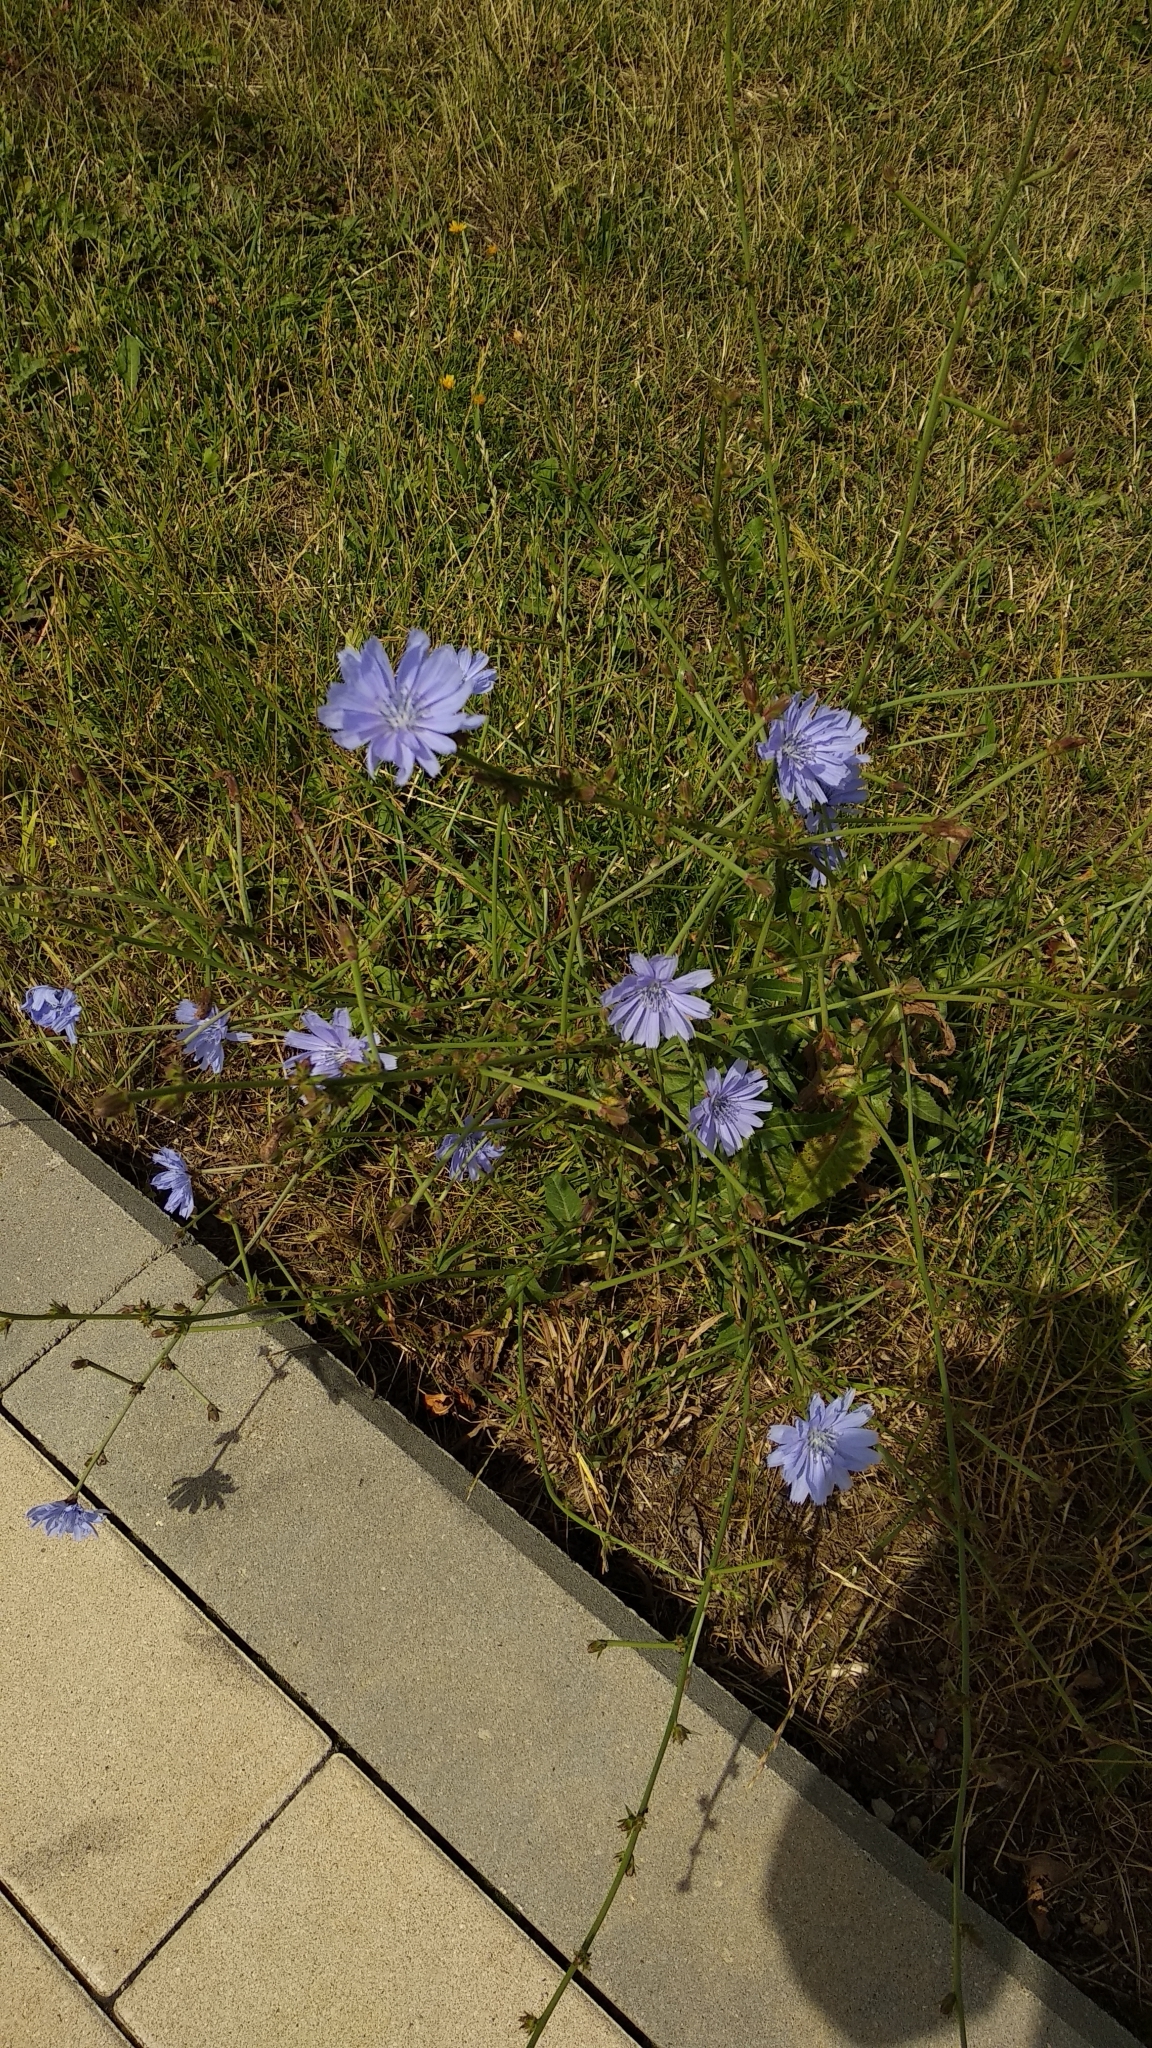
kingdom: Plantae
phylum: Tracheophyta
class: Magnoliopsida
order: Asterales
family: Asteraceae
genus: Cichorium
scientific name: Cichorium intybus
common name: Chicory
